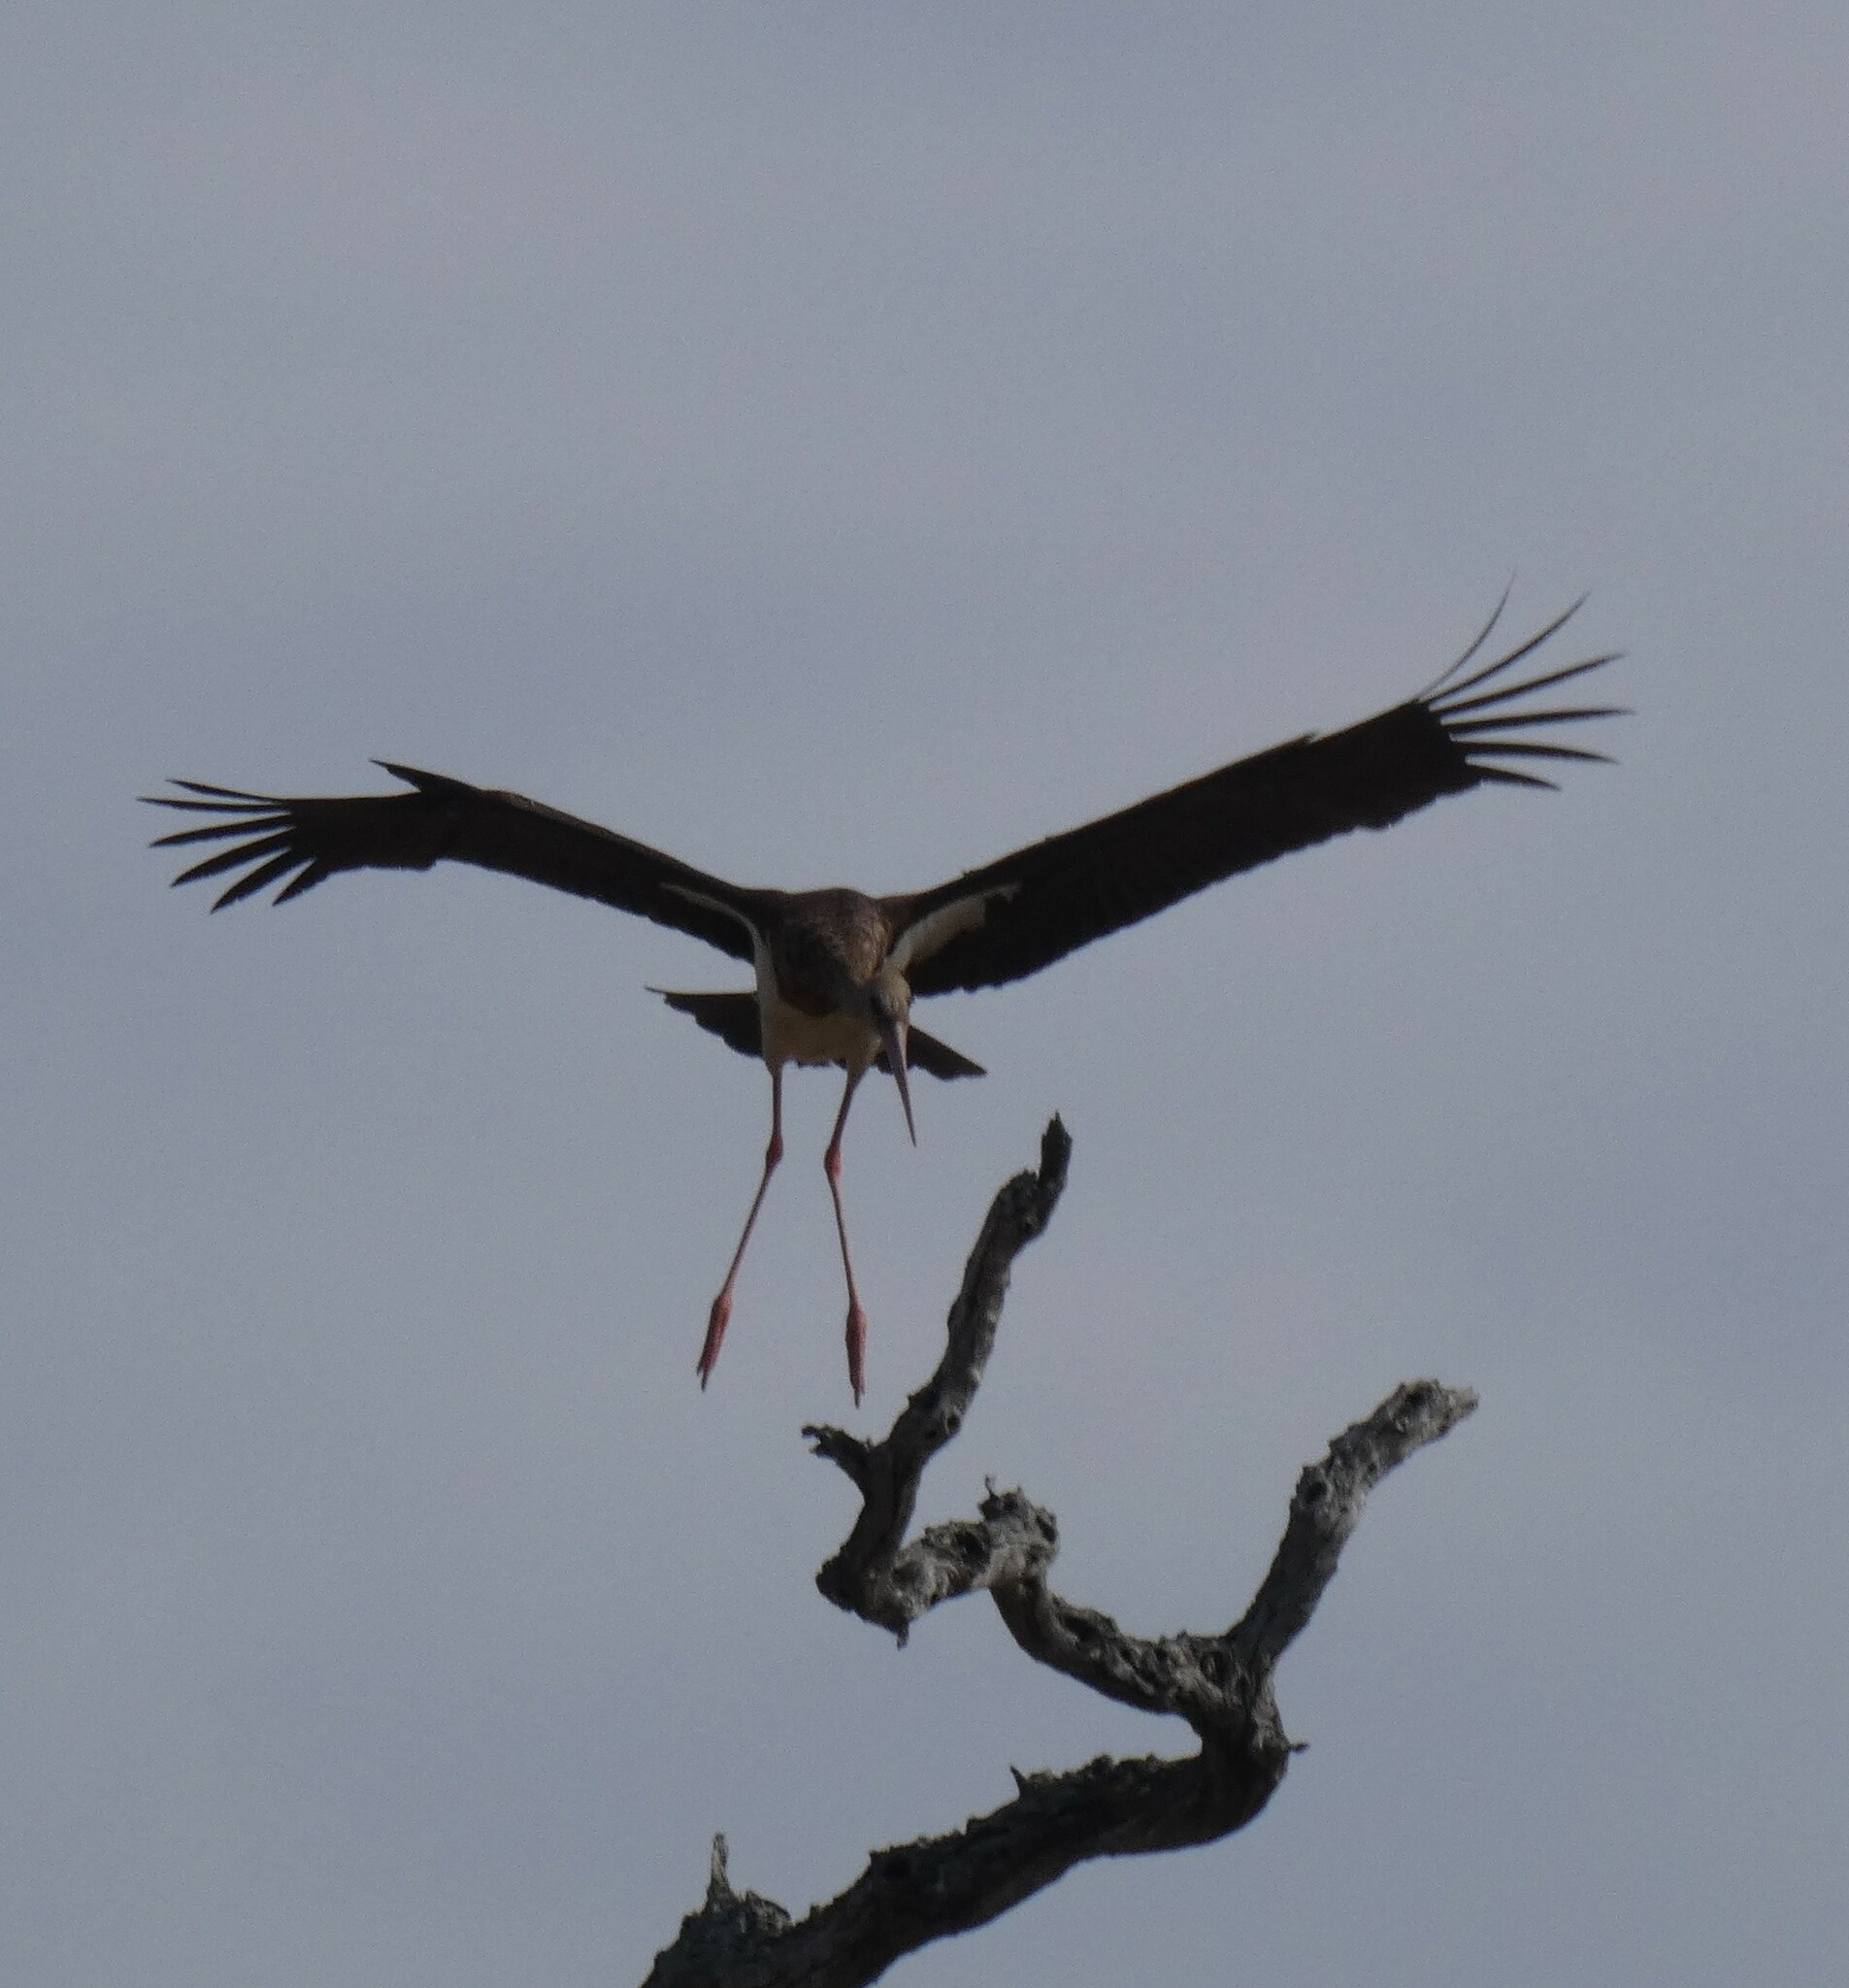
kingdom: Animalia
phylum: Chordata
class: Aves
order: Ciconiiformes
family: Ciconiidae
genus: Ciconia
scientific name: Ciconia nigra
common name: Black stork
